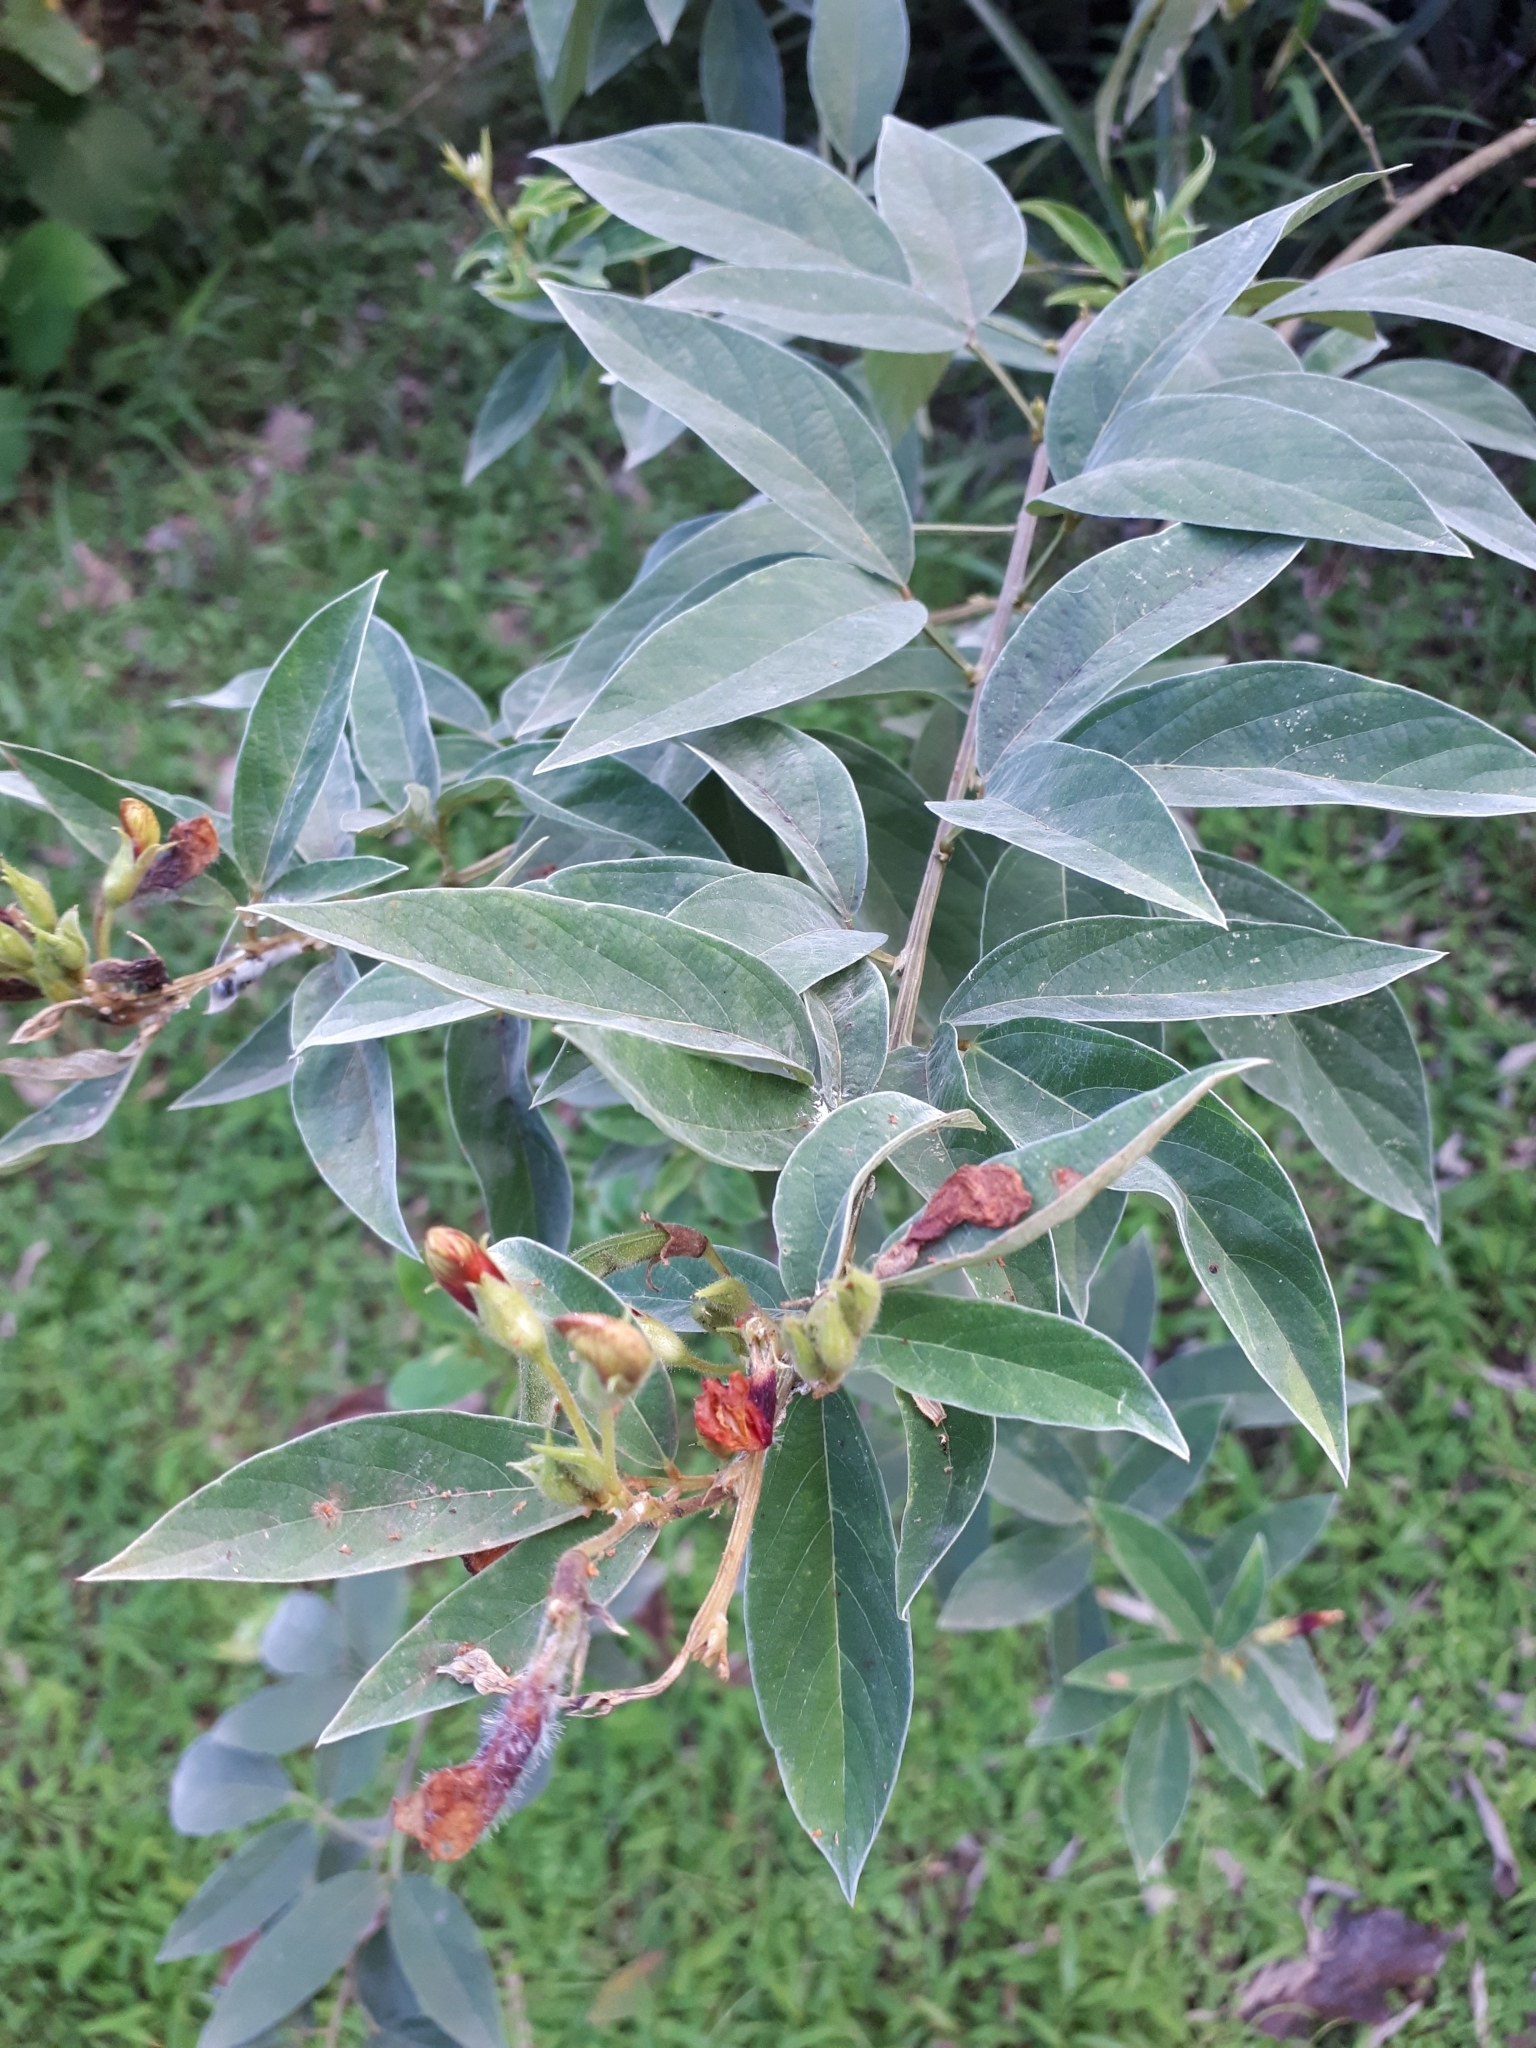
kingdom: Plantae
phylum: Tracheophyta
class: Magnoliopsida
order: Fabales
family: Fabaceae
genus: Cajanus
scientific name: Cajanus cajan
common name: Pigeonpea
